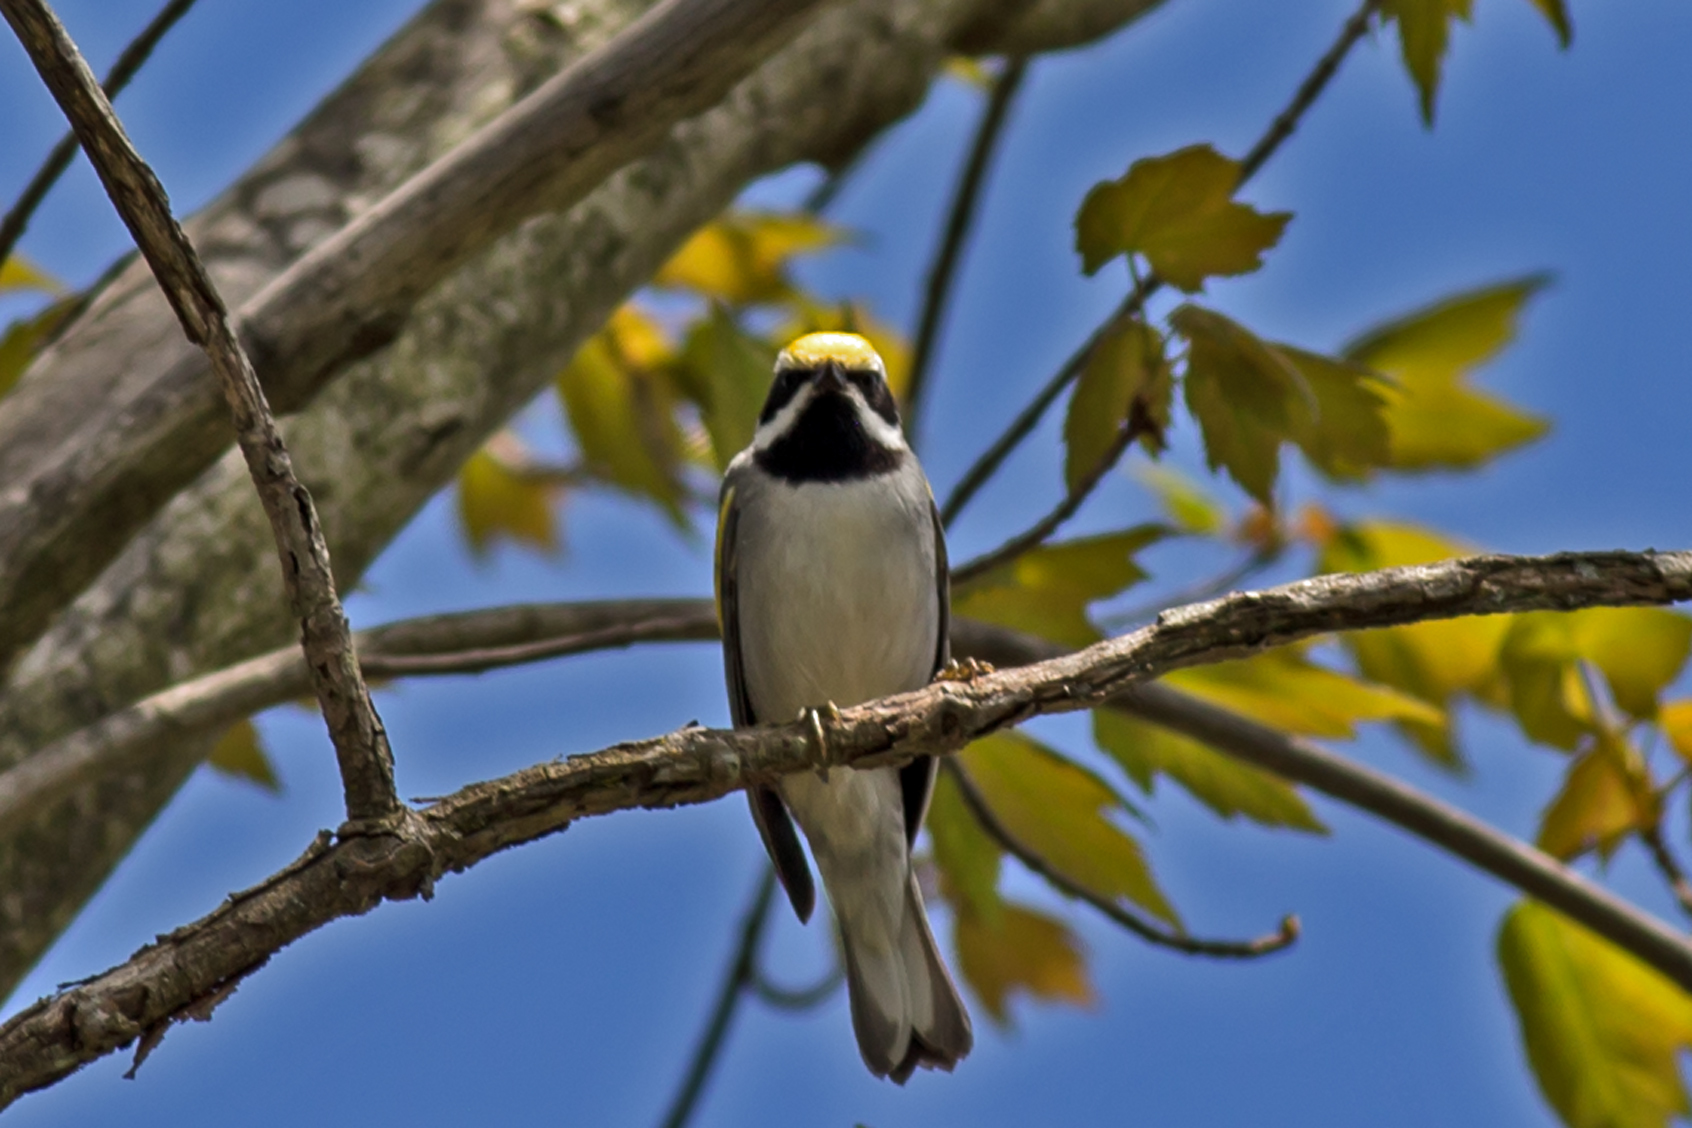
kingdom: Animalia
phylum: Chordata
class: Aves
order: Passeriformes
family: Parulidae
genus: Vermivora
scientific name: Vermivora chrysoptera
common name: Golden-winged warbler
